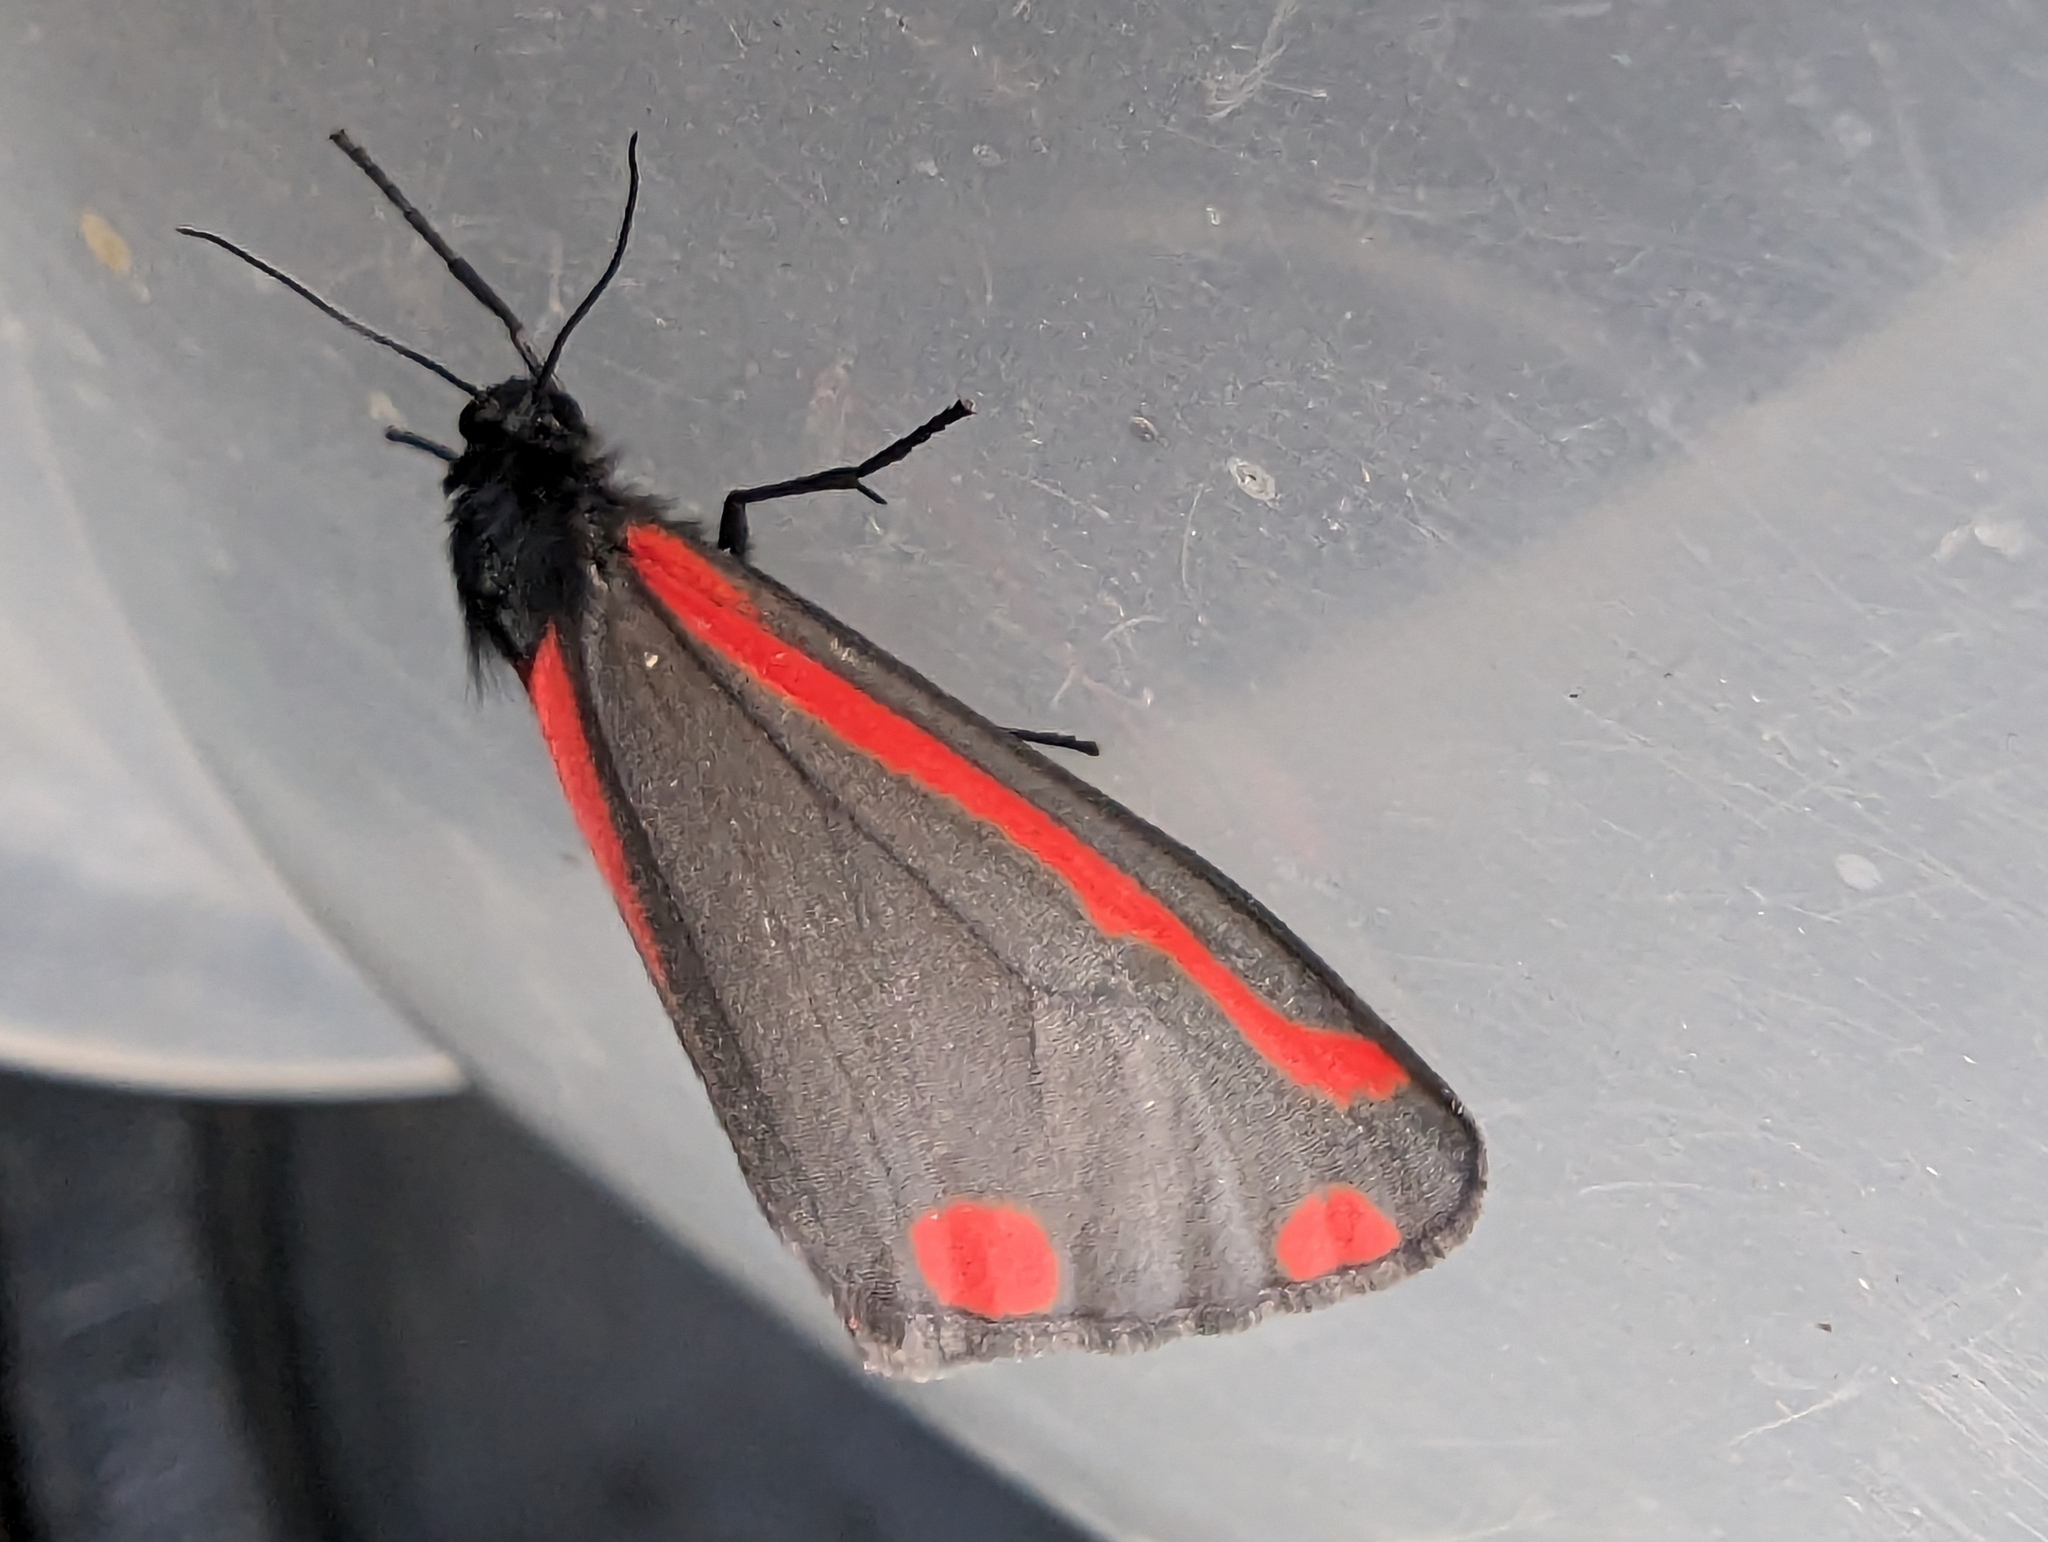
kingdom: Animalia
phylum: Arthropoda
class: Insecta
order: Lepidoptera
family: Erebidae
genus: Tyria
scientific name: Tyria jacobaeae
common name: Cinnabar
